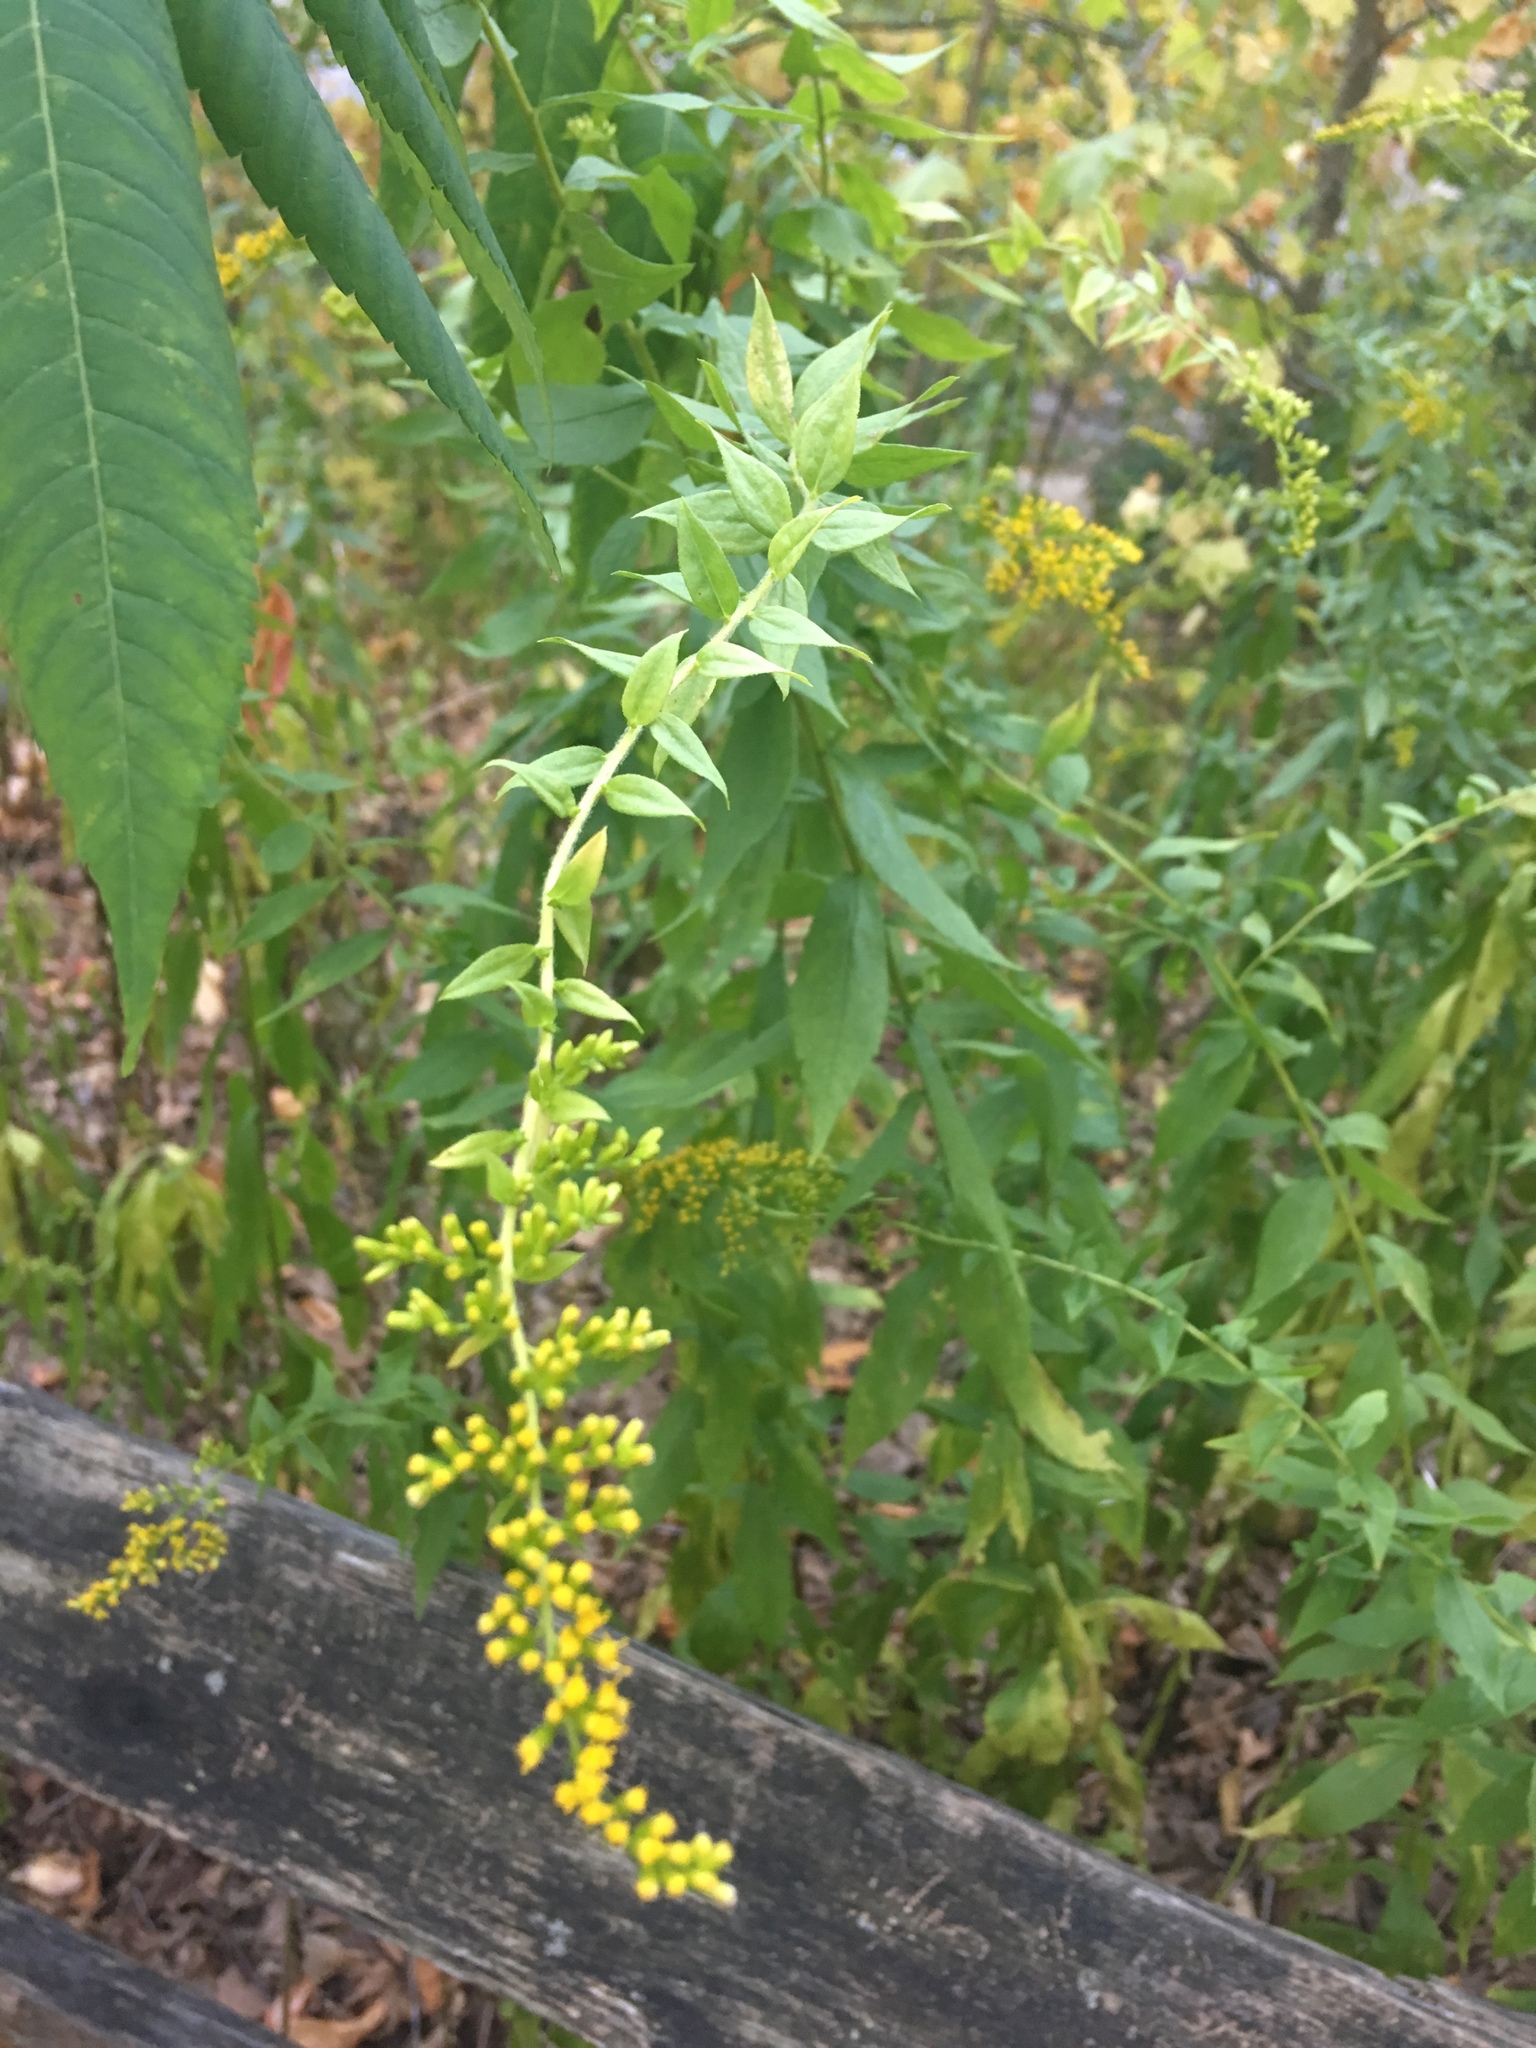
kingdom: Plantae
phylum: Tracheophyta
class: Magnoliopsida
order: Asterales
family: Asteraceae
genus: Solidago
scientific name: Solidago rugosa
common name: Rough-stemmed goldenrod
